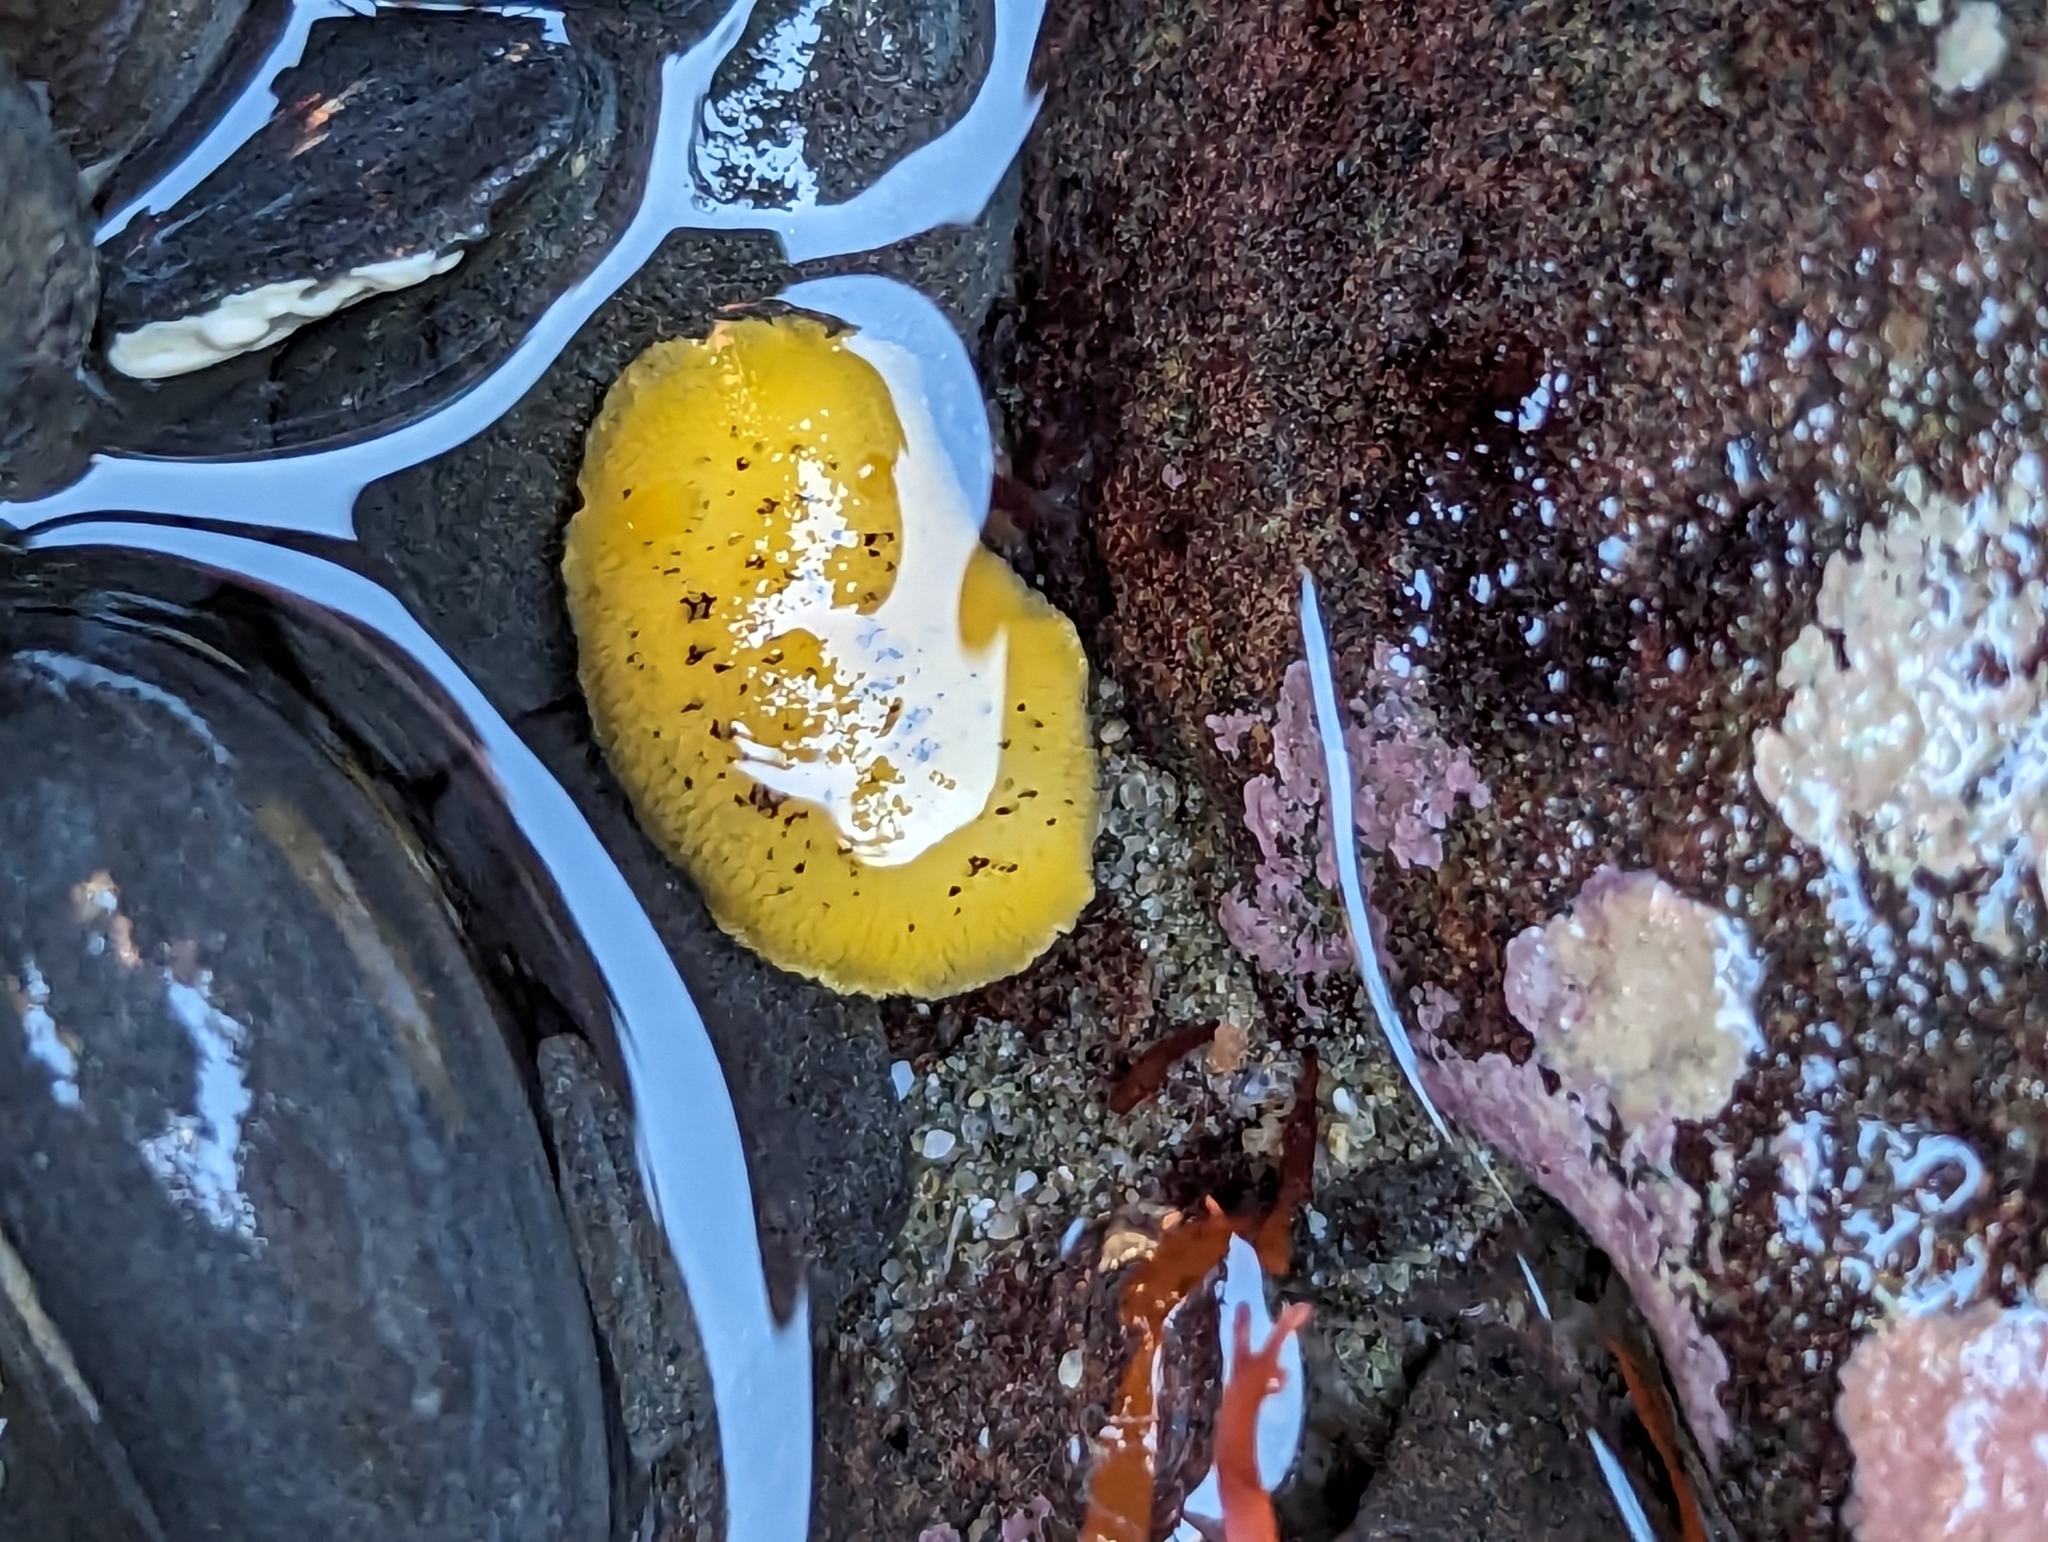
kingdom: Animalia
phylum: Mollusca
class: Gastropoda
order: Nudibranchia
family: Dorididae
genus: Doris
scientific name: Doris montereyensis
